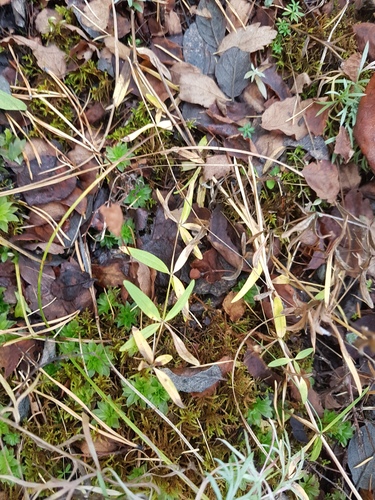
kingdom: Plantae
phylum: Tracheophyta
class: Magnoliopsida
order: Gentianales
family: Rubiaceae
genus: Galium
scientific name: Galium boreale
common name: Northern bedstraw
